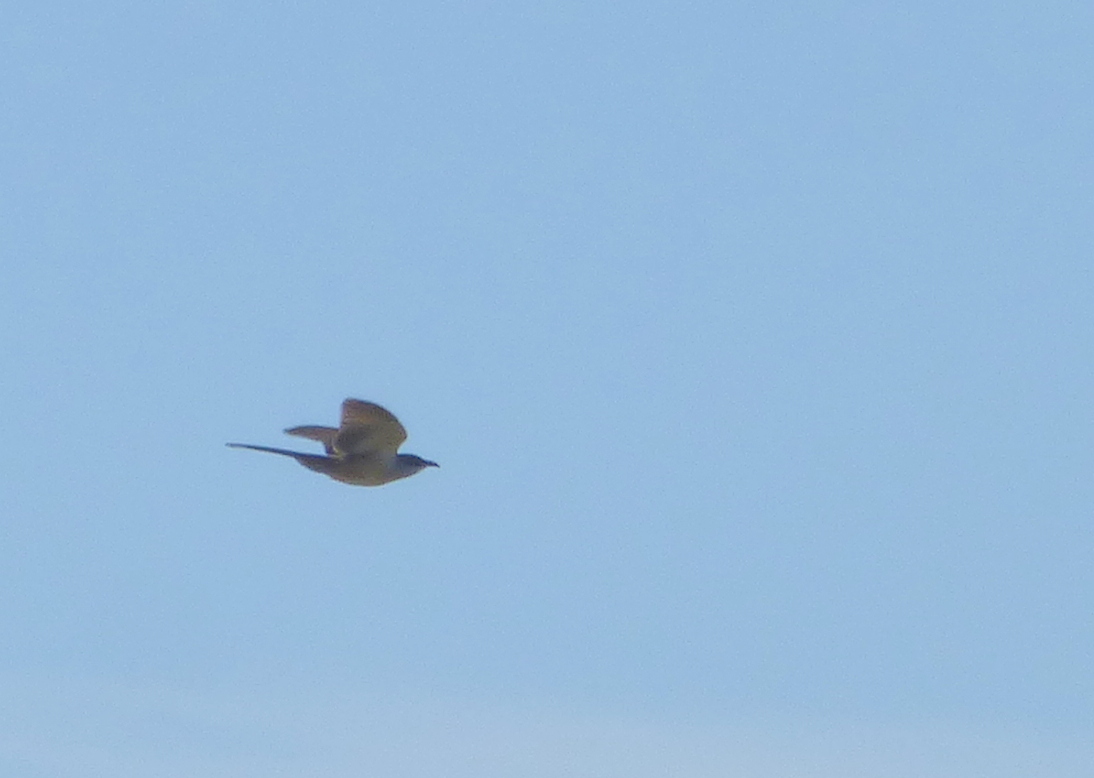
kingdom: Animalia
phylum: Chordata
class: Aves
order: Cuculiformes
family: Cuculidae
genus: Coccyzus
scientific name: Coccyzus melacoryphus
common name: Dark-billed cuckoo
